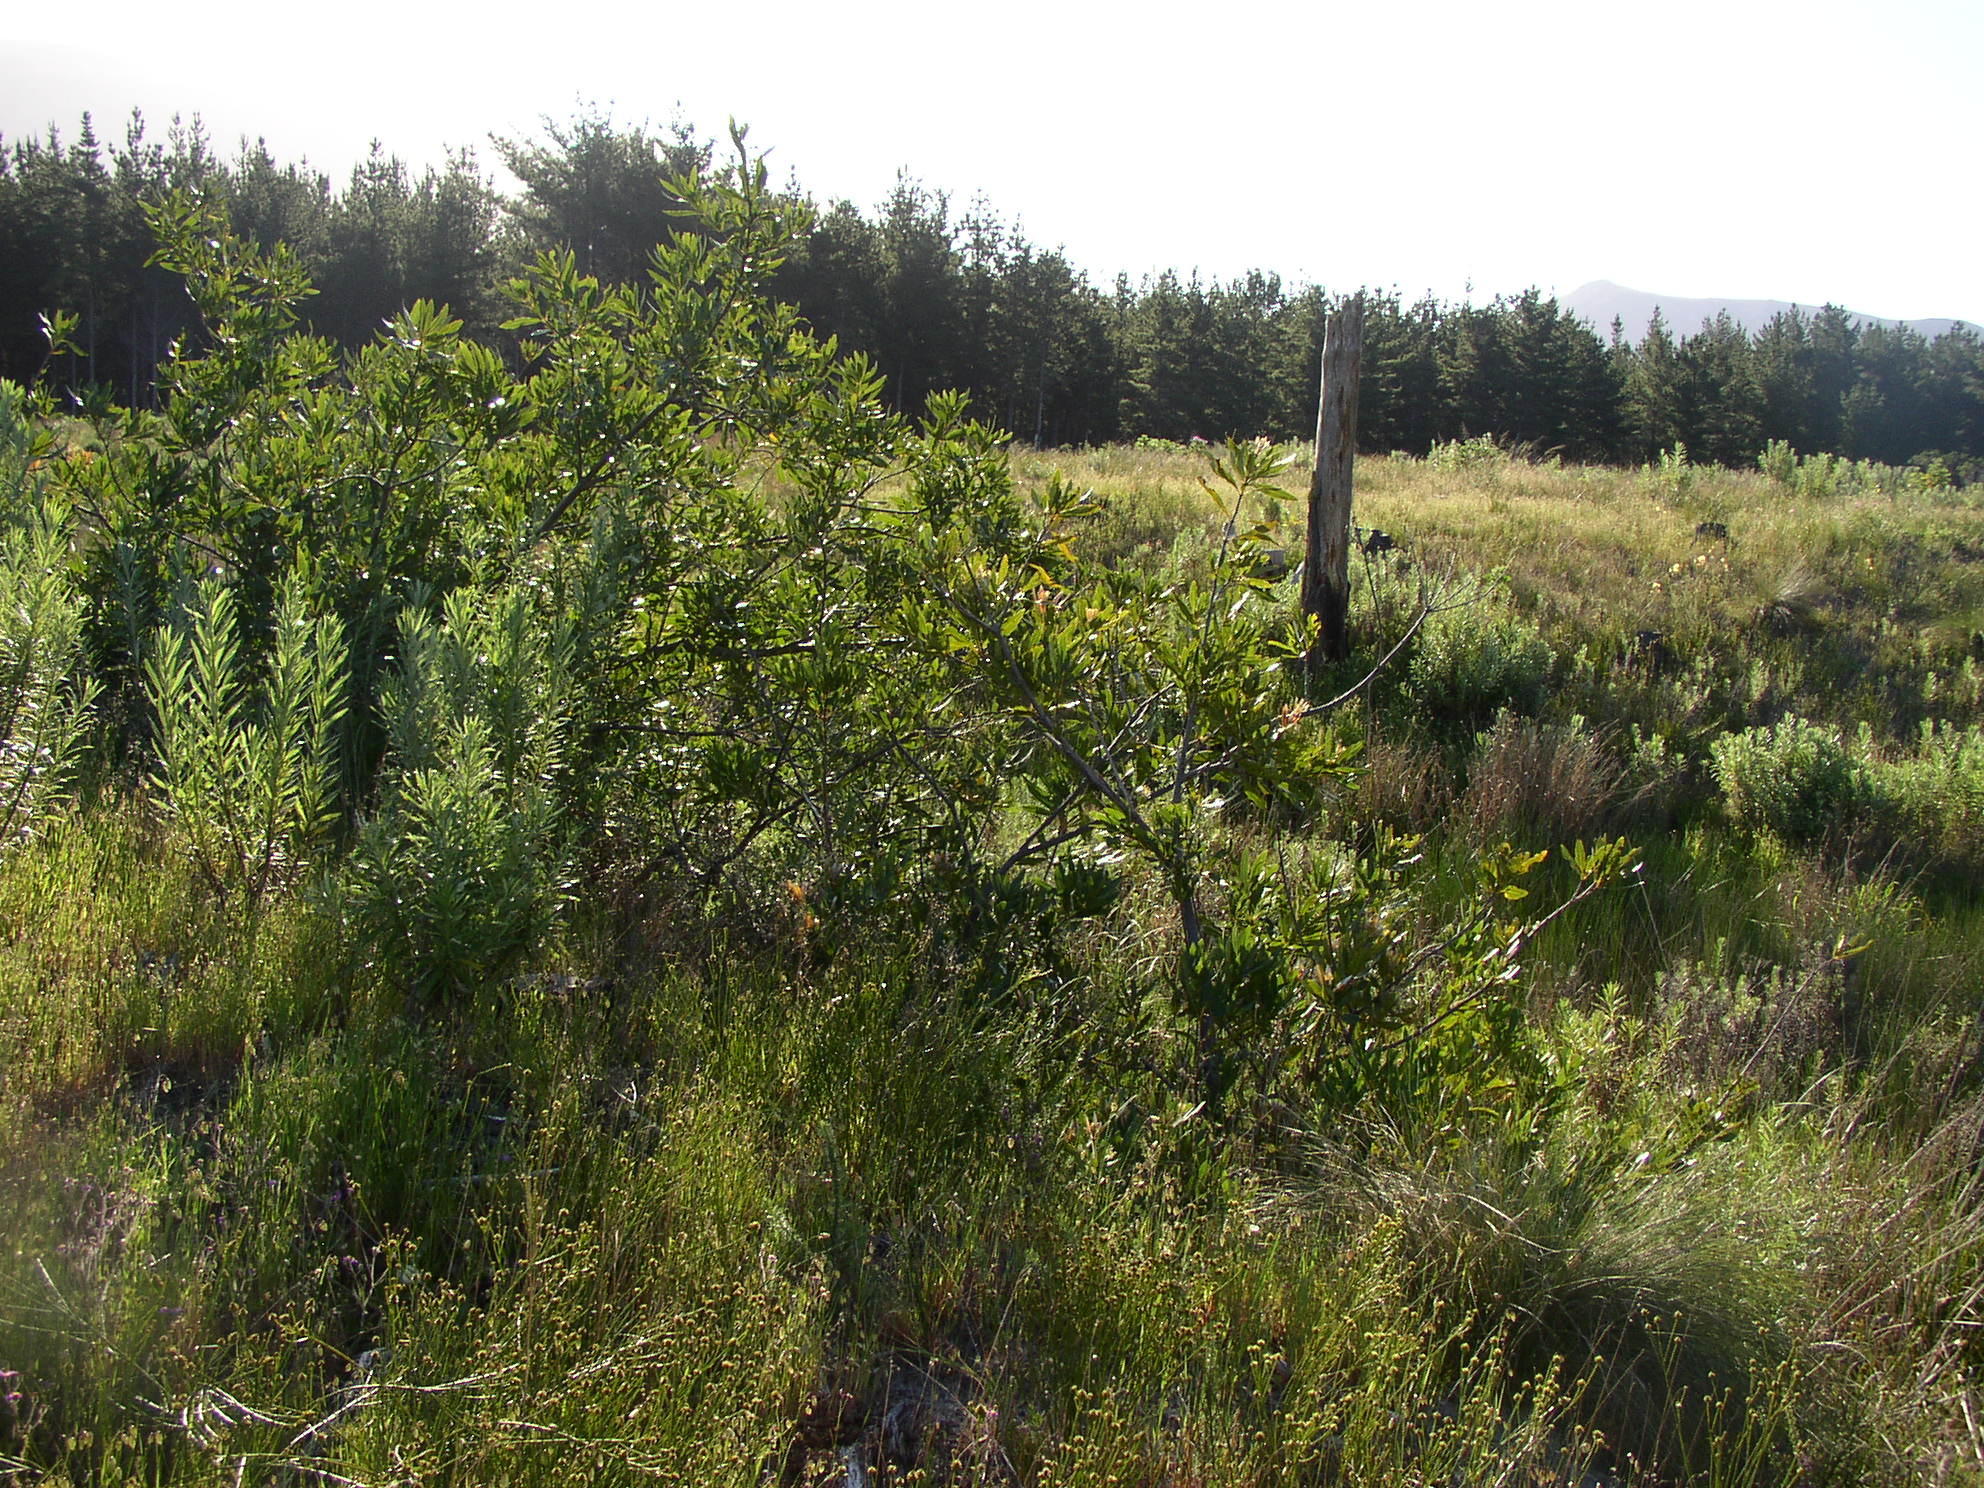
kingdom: Plantae
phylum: Tracheophyta
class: Magnoliopsida
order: Proteales
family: Proteaceae
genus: Brabejum
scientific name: Brabejum stellatifolium
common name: Wild almond
